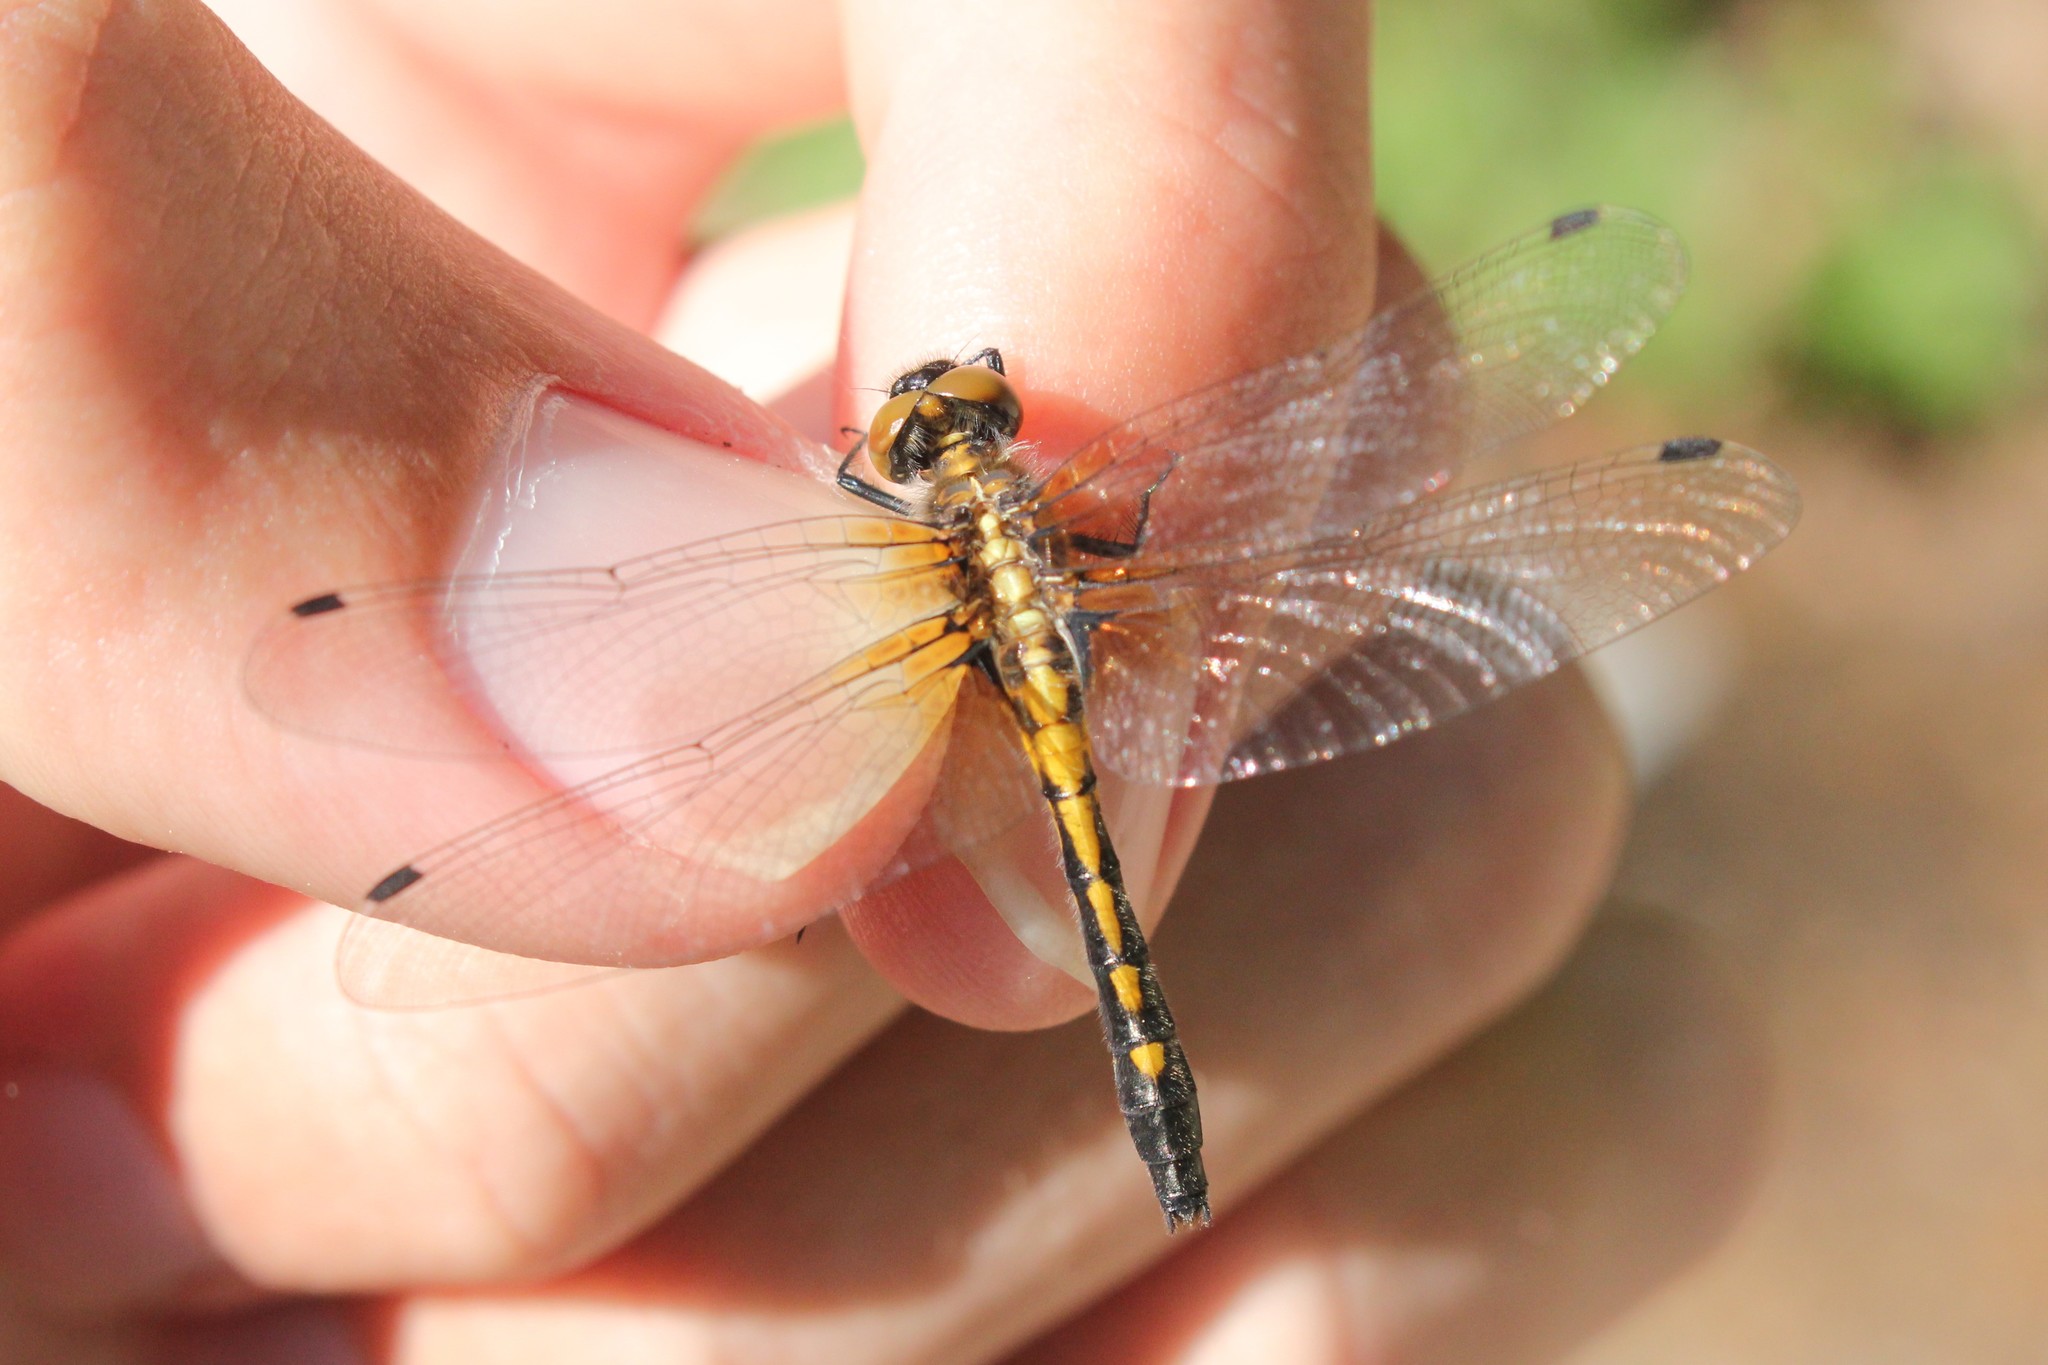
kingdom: Animalia
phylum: Arthropoda
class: Insecta
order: Odonata
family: Libellulidae
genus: Leucorrhinia
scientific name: Leucorrhinia intacta
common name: Dot-tailed whiteface
